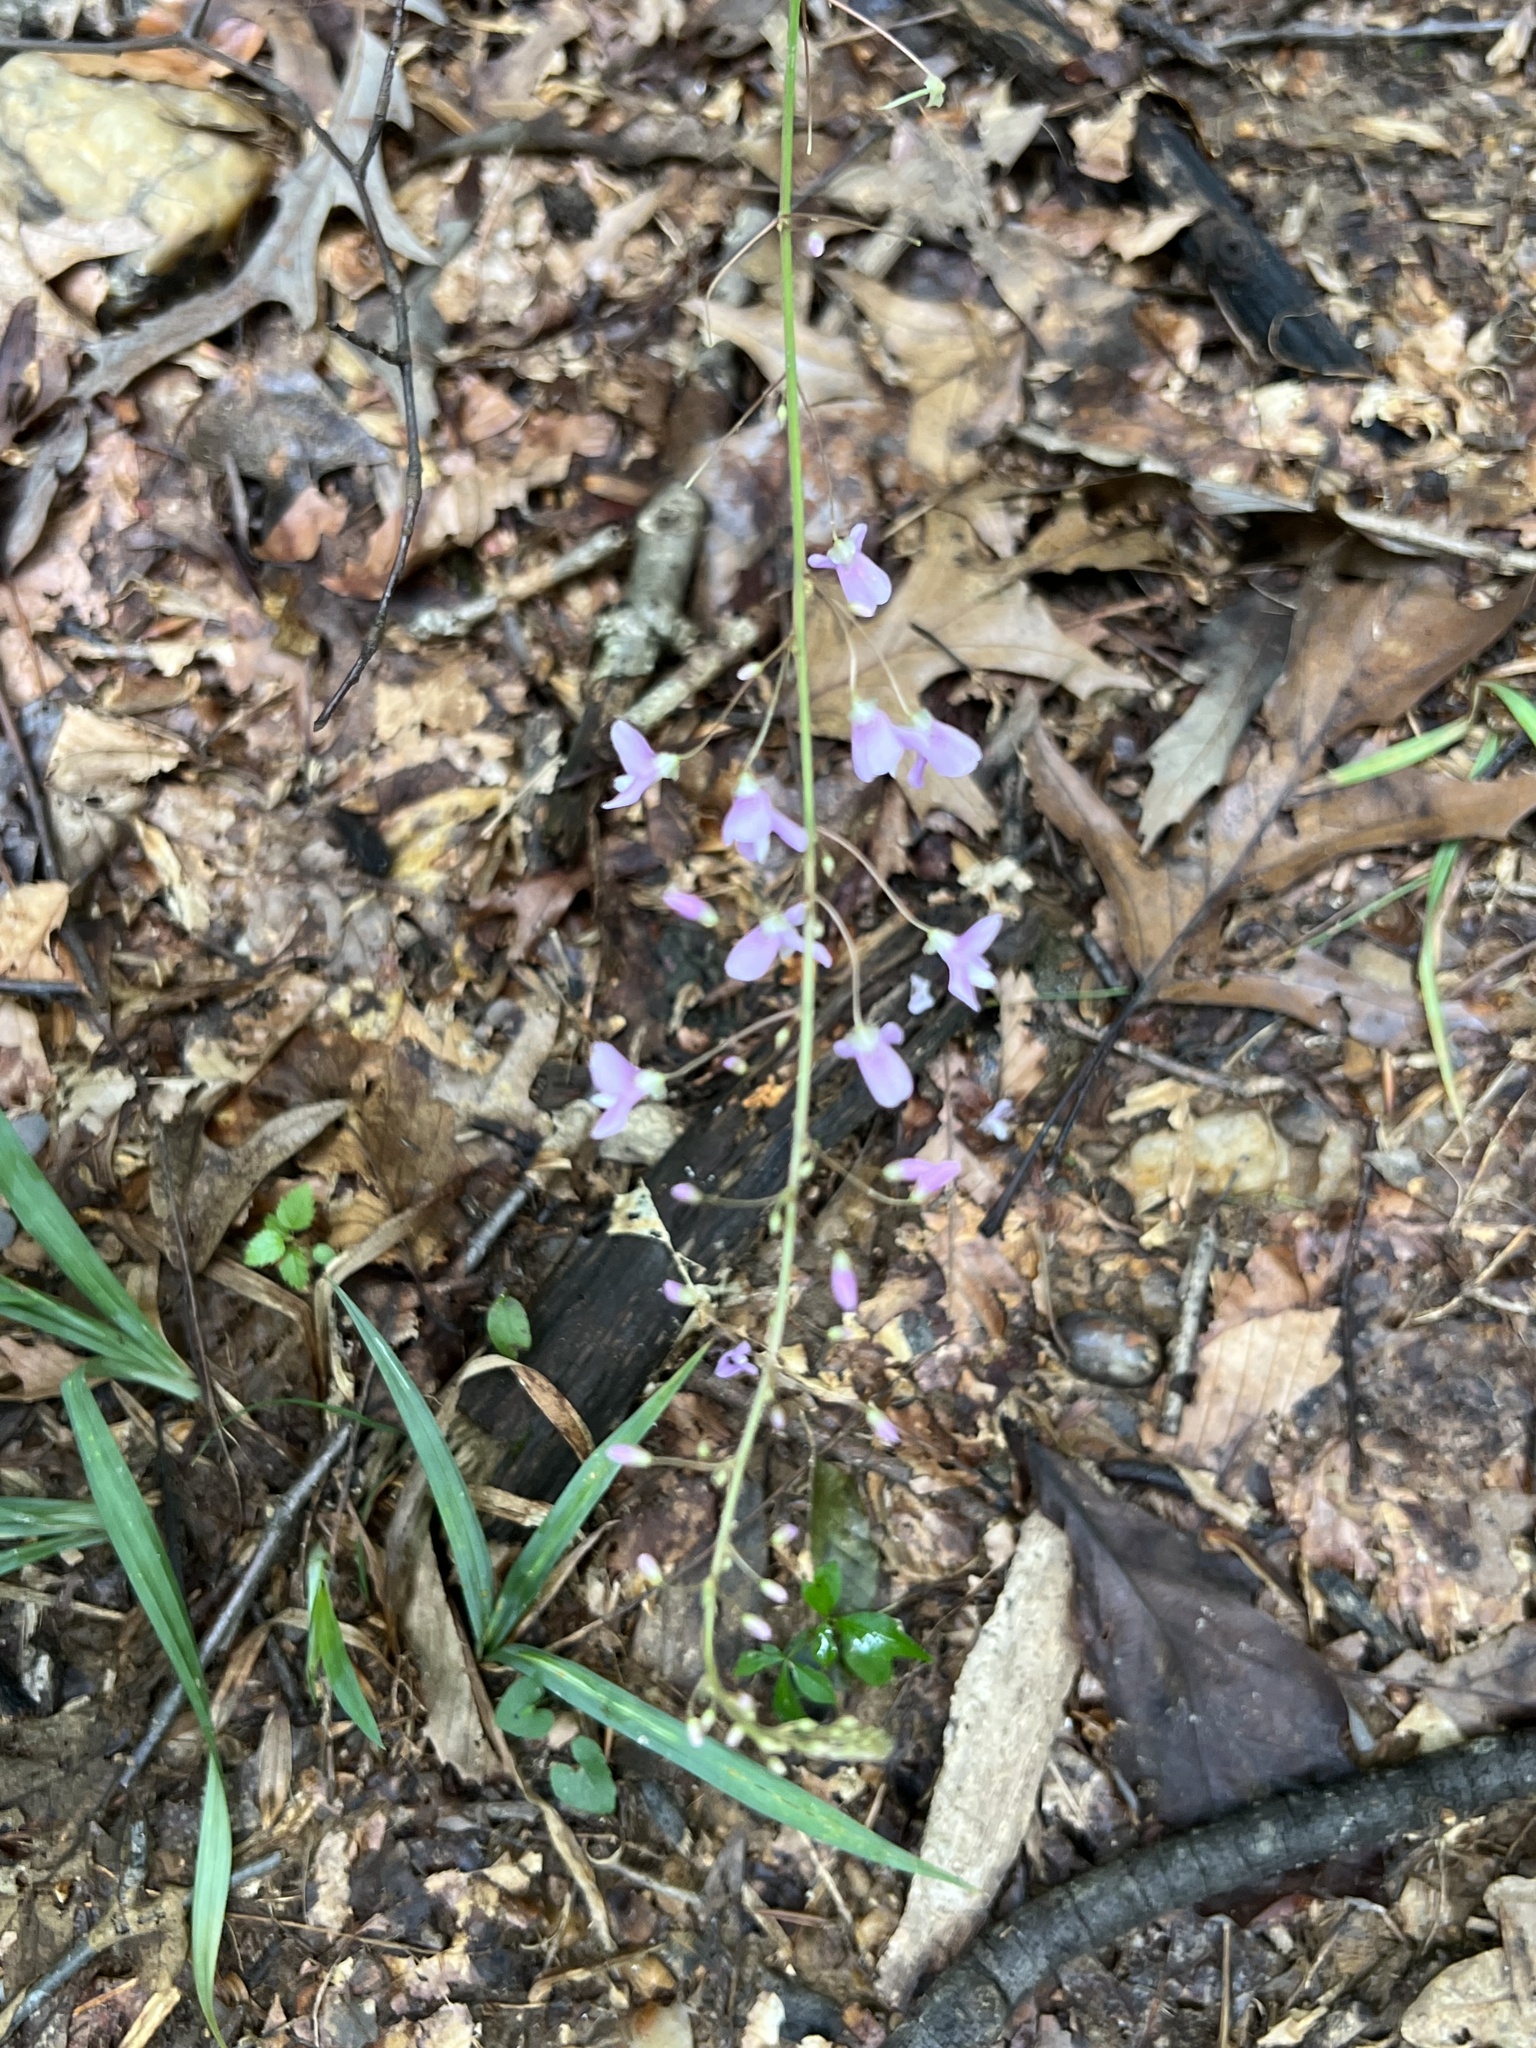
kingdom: Plantae
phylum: Tracheophyta
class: Magnoliopsida
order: Fabales
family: Fabaceae
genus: Hylodesmum
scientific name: Hylodesmum nudiflorum
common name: Bare-stemmed tick-trefoil
